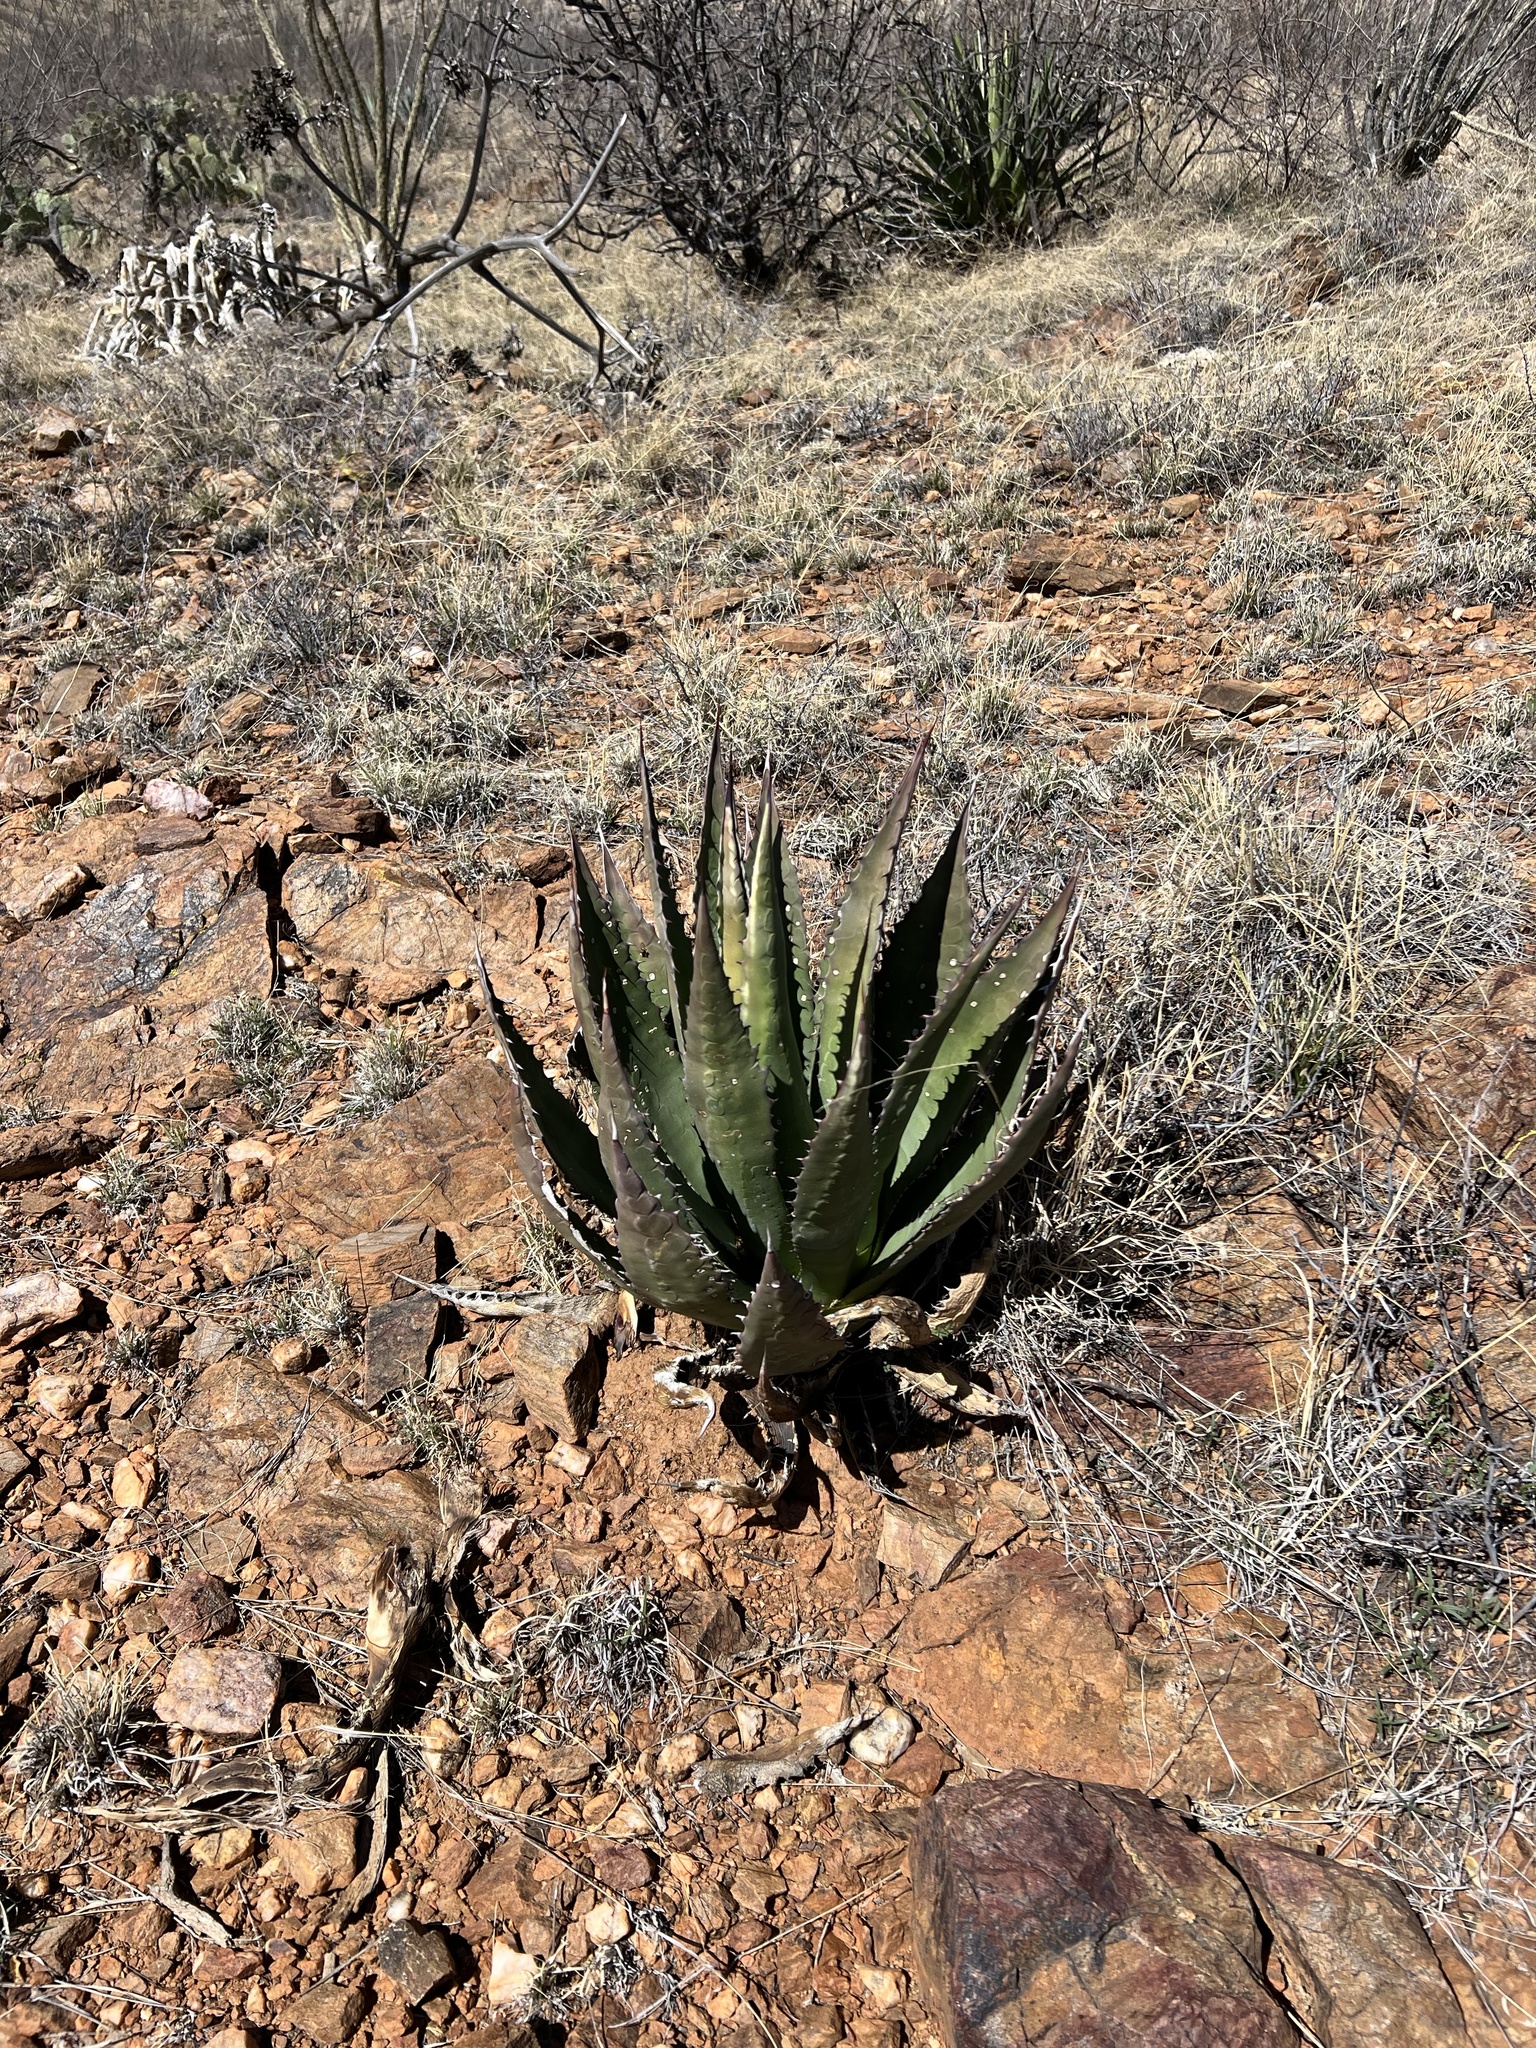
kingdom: Plantae
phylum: Tracheophyta
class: Liliopsida
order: Asparagales
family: Asparagaceae
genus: Agave
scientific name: Agave palmeri
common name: Palmer agave
